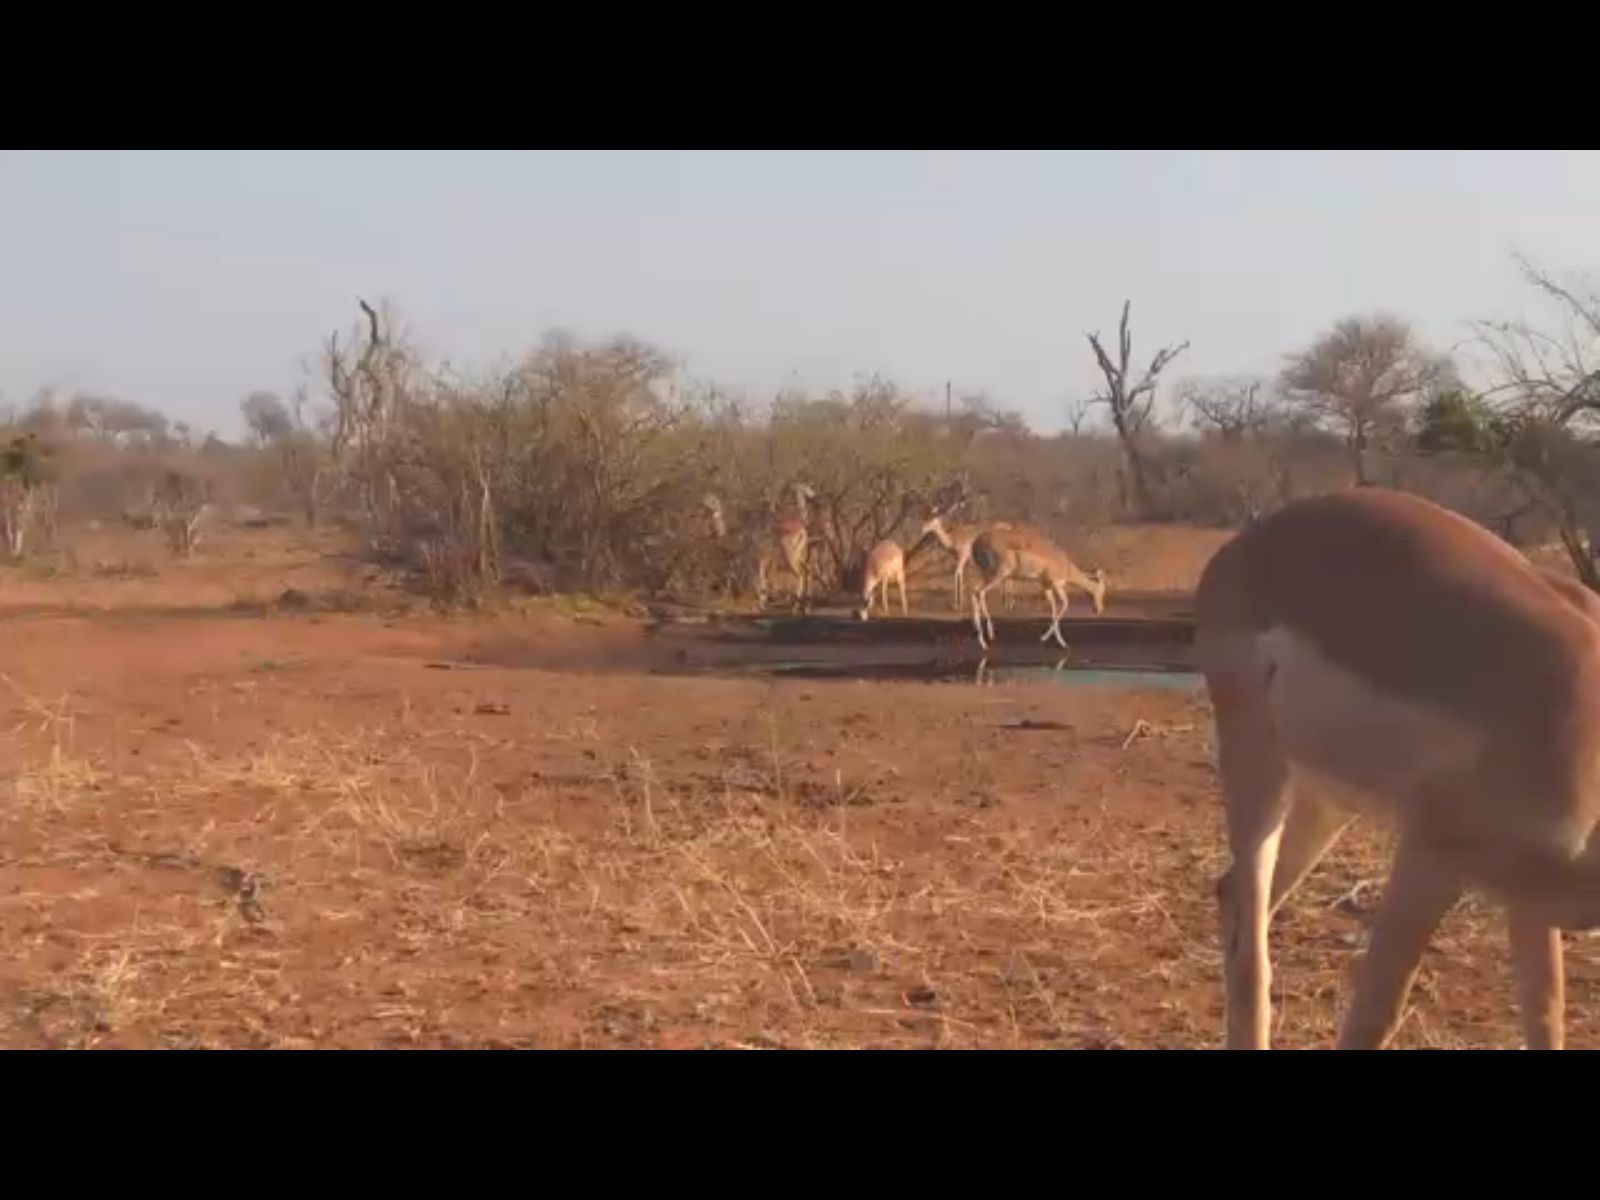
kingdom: Animalia
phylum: Chordata
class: Mammalia
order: Artiodactyla
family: Bovidae
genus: Aepyceros
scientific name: Aepyceros melampus
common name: Impala
